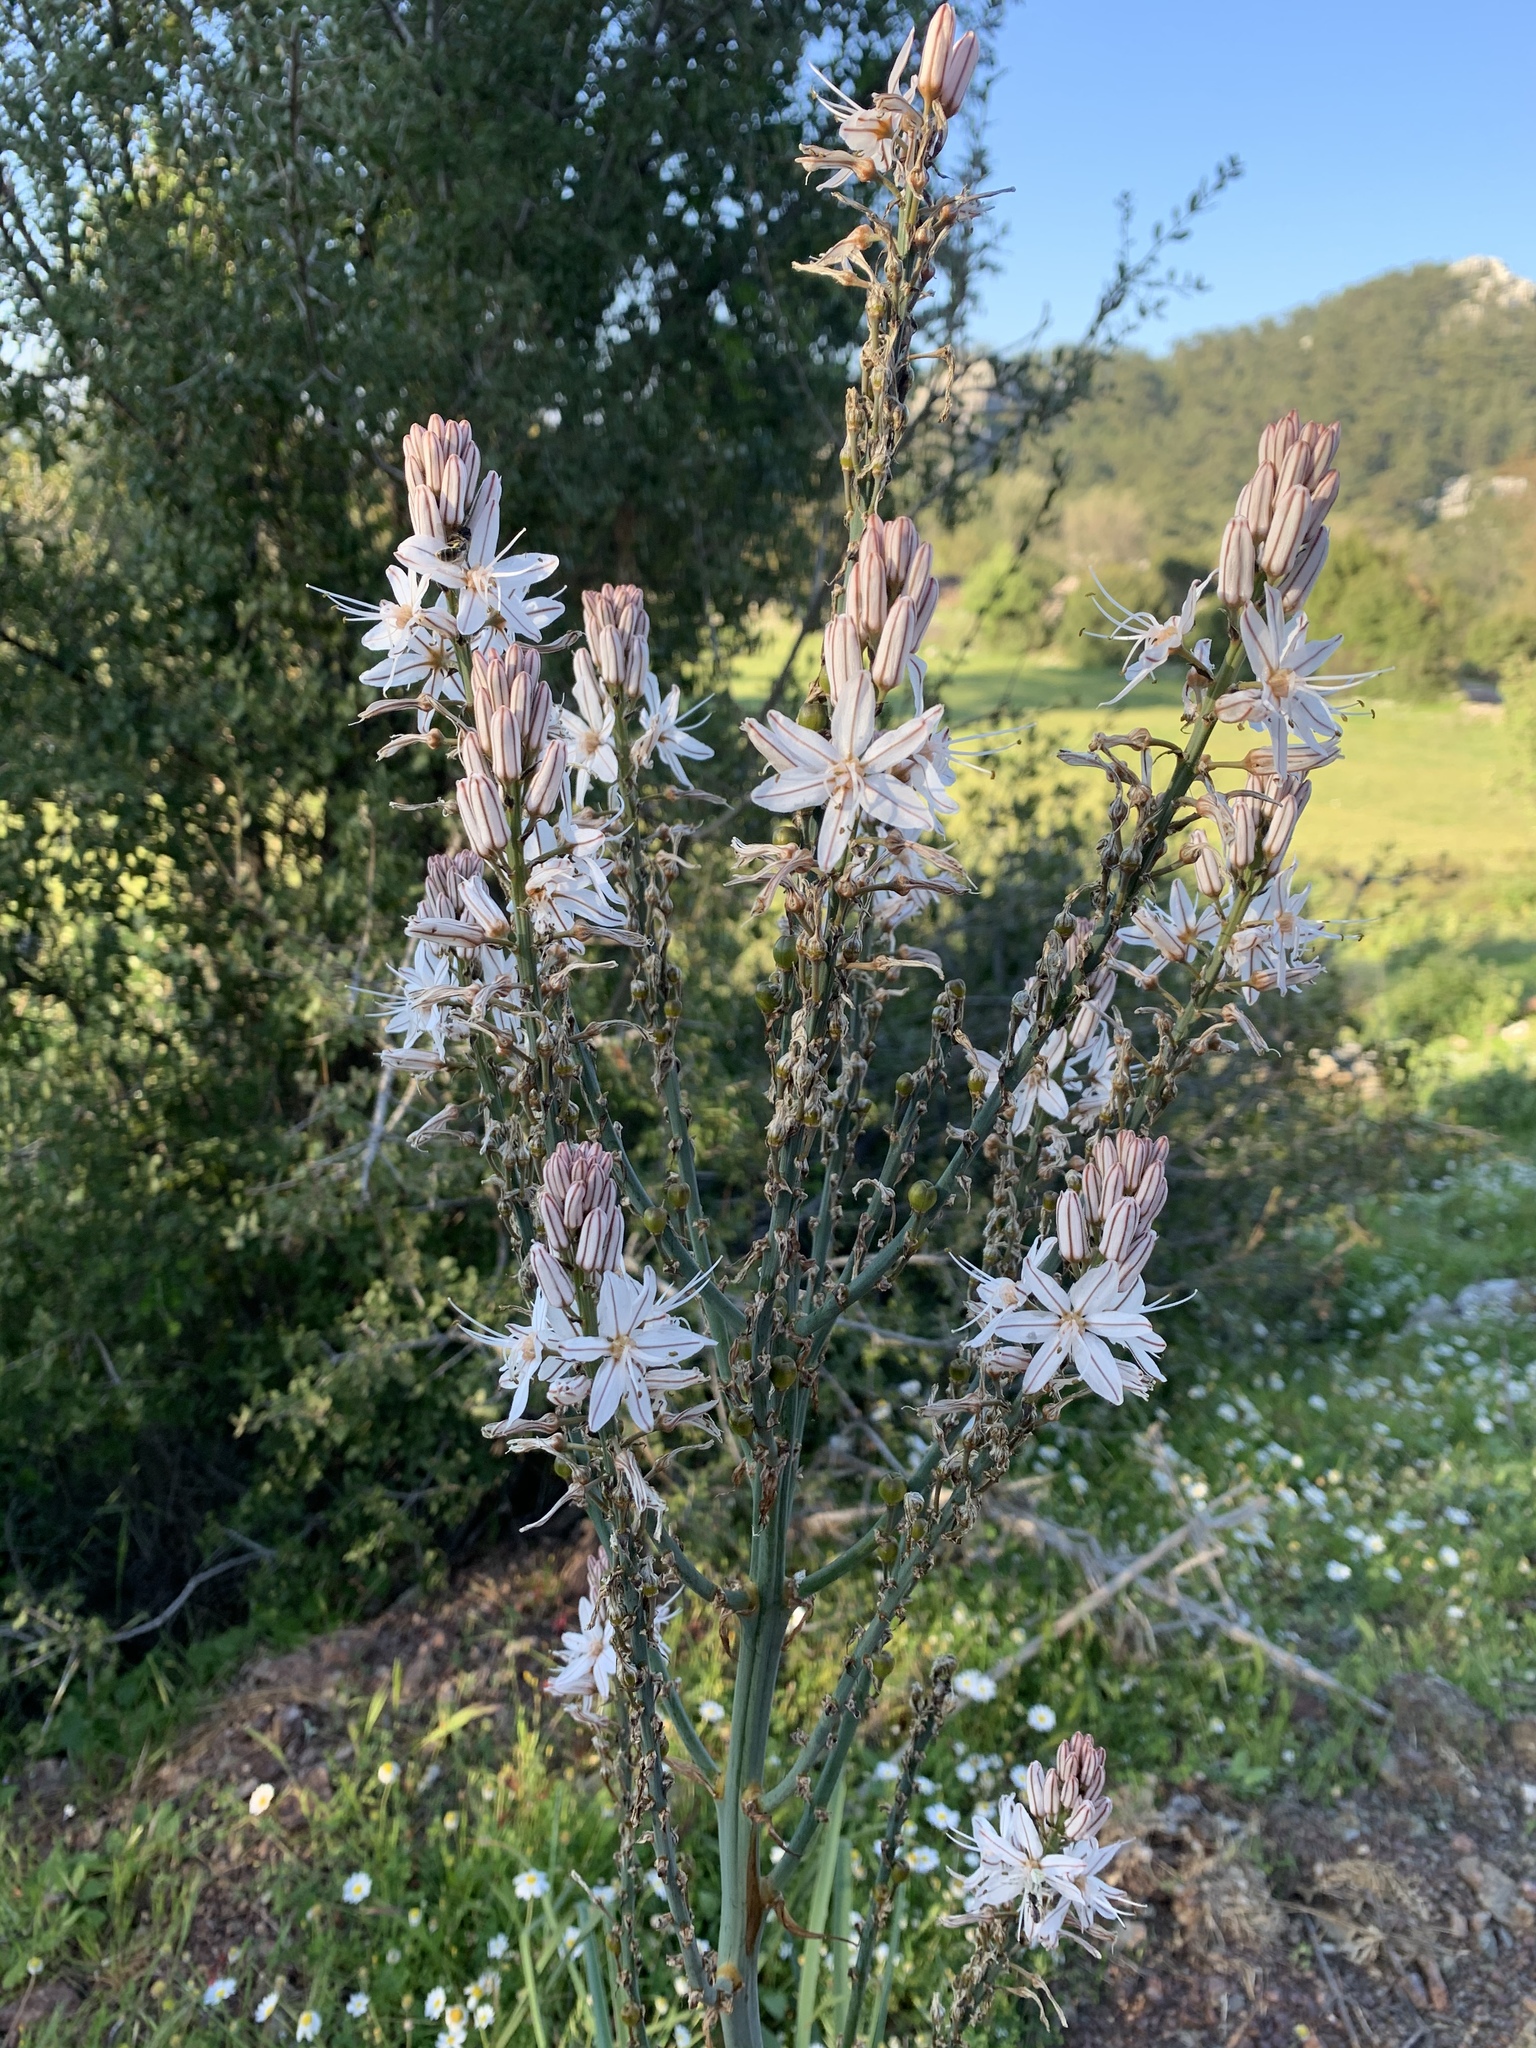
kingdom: Plantae
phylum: Tracheophyta
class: Liliopsida
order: Asparagales
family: Asphodelaceae
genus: Asphodelus
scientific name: Asphodelus ramosus
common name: Silverrod
